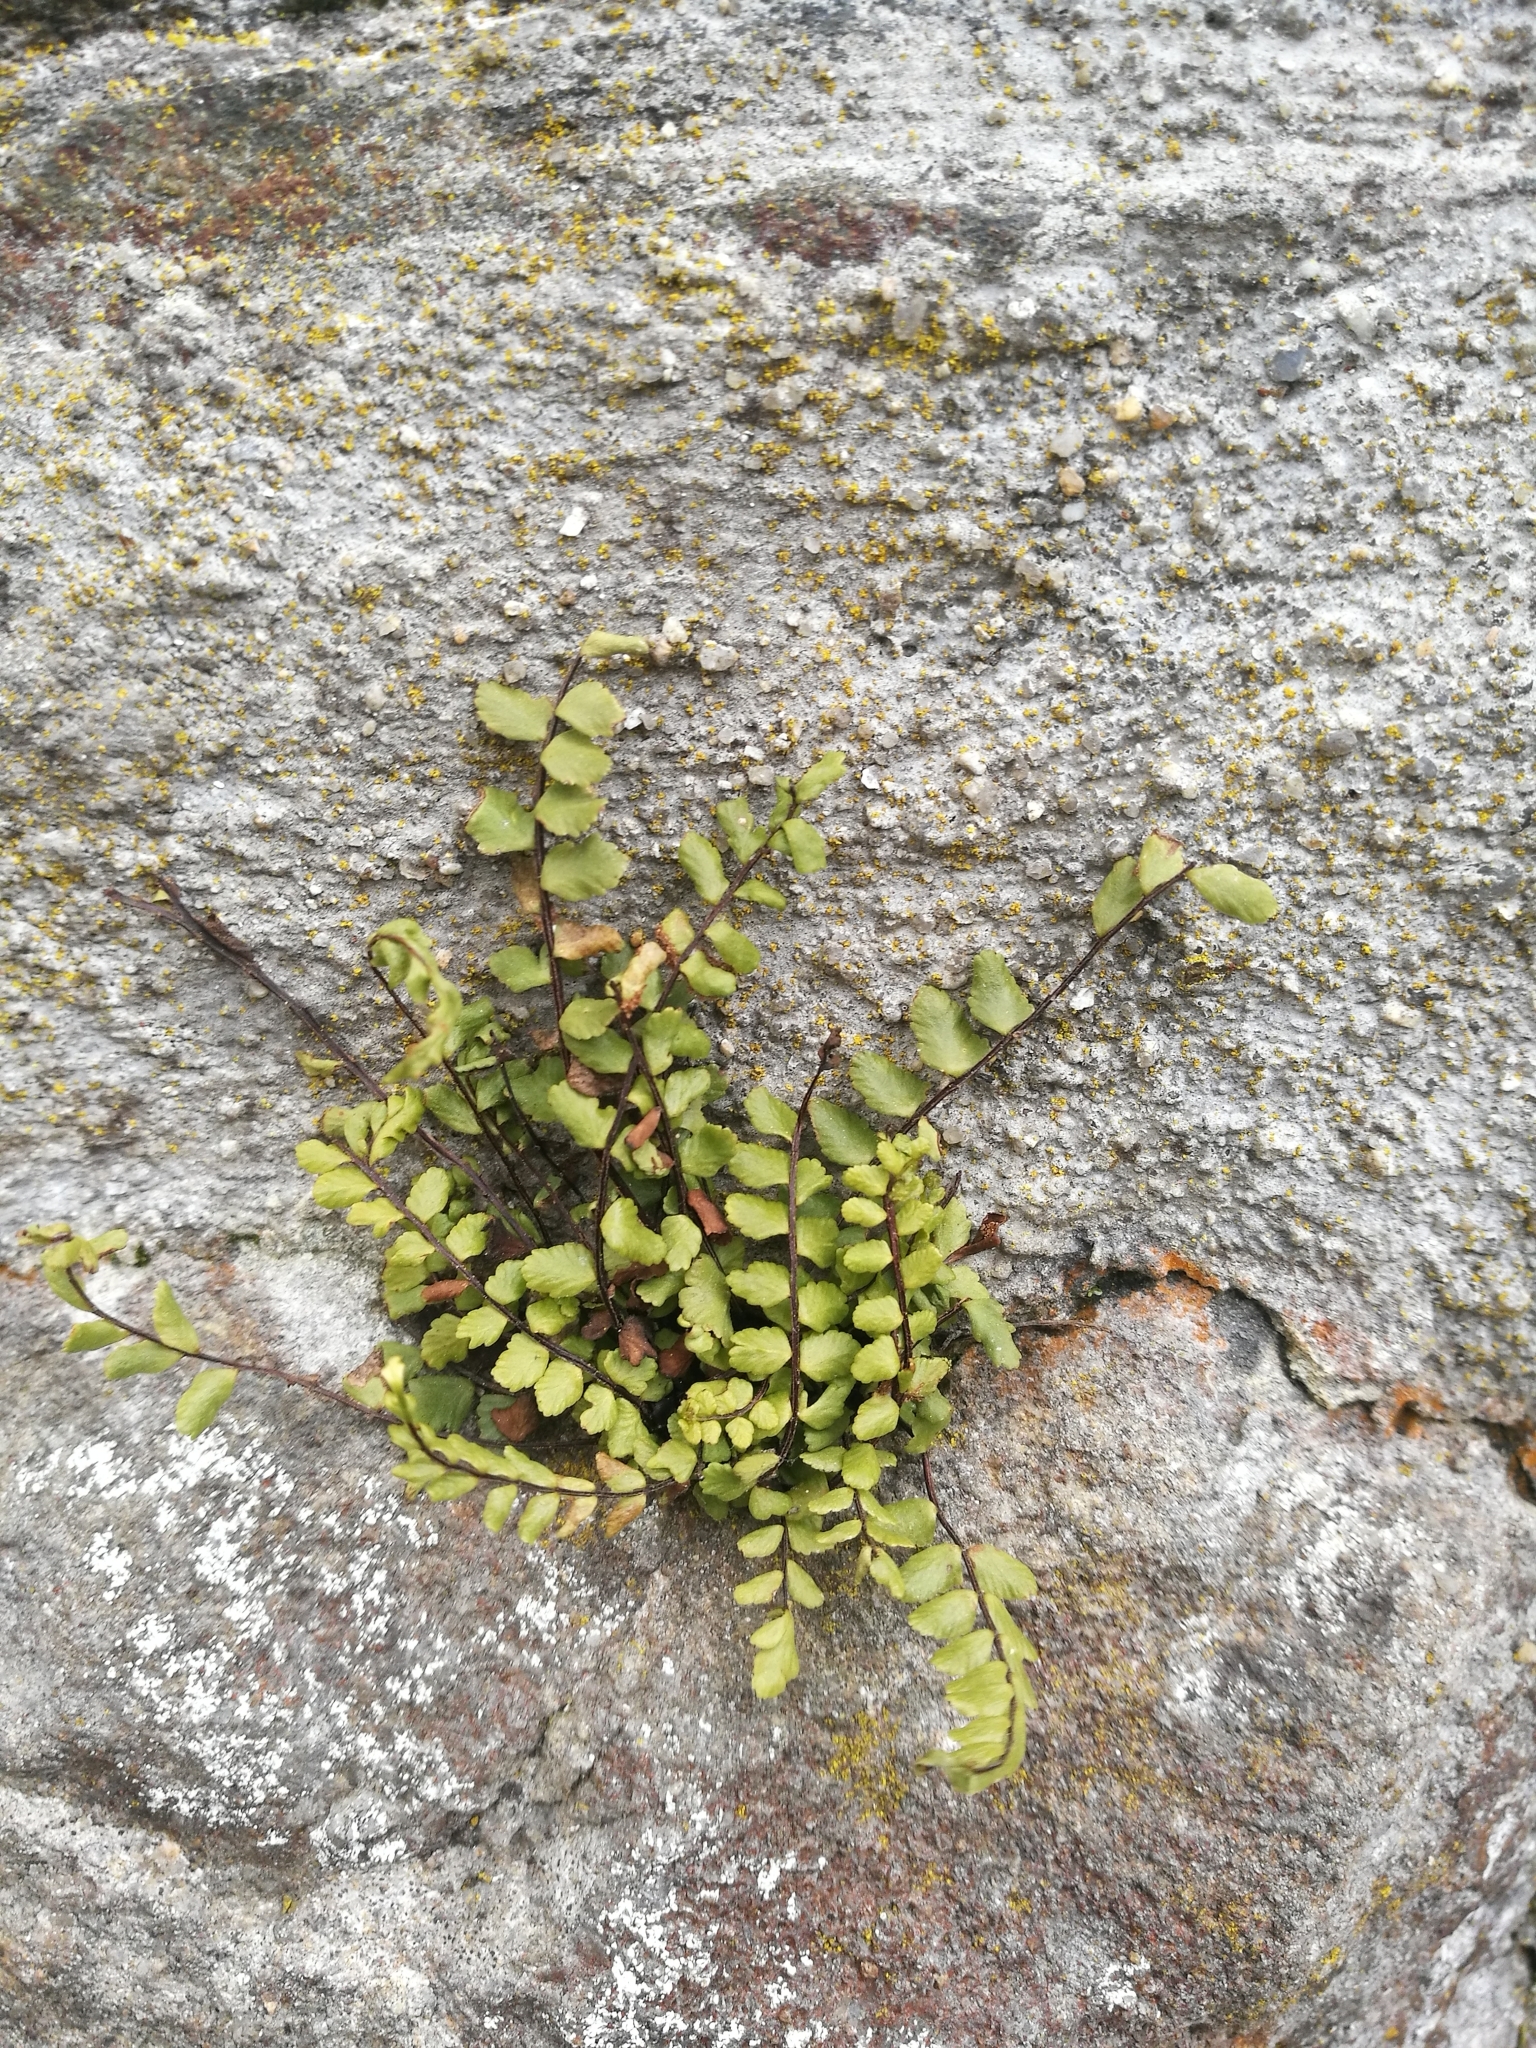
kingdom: Plantae
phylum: Tracheophyta
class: Polypodiopsida
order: Polypodiales
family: Aspleniaceae
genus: Asplenium
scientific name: Asplenium trichomanes
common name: Maidenhair spleenwort
